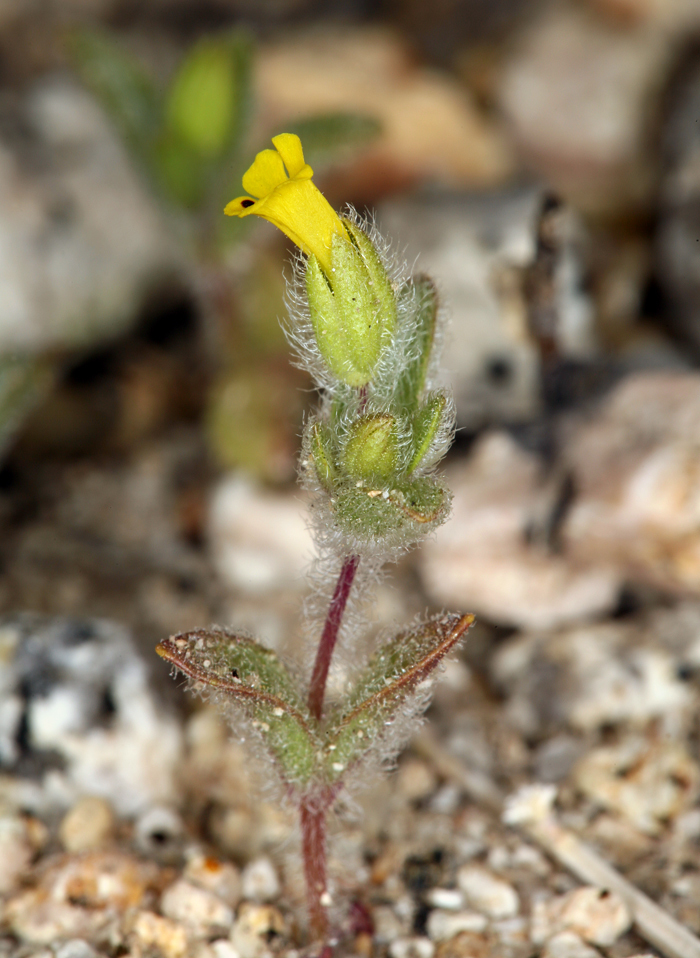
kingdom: Plantae
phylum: Tracheophyta
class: Magnoliopsida
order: Lamiales
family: Phrymaceae
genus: Mimetanthe
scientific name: Mimetanthe pilosa
